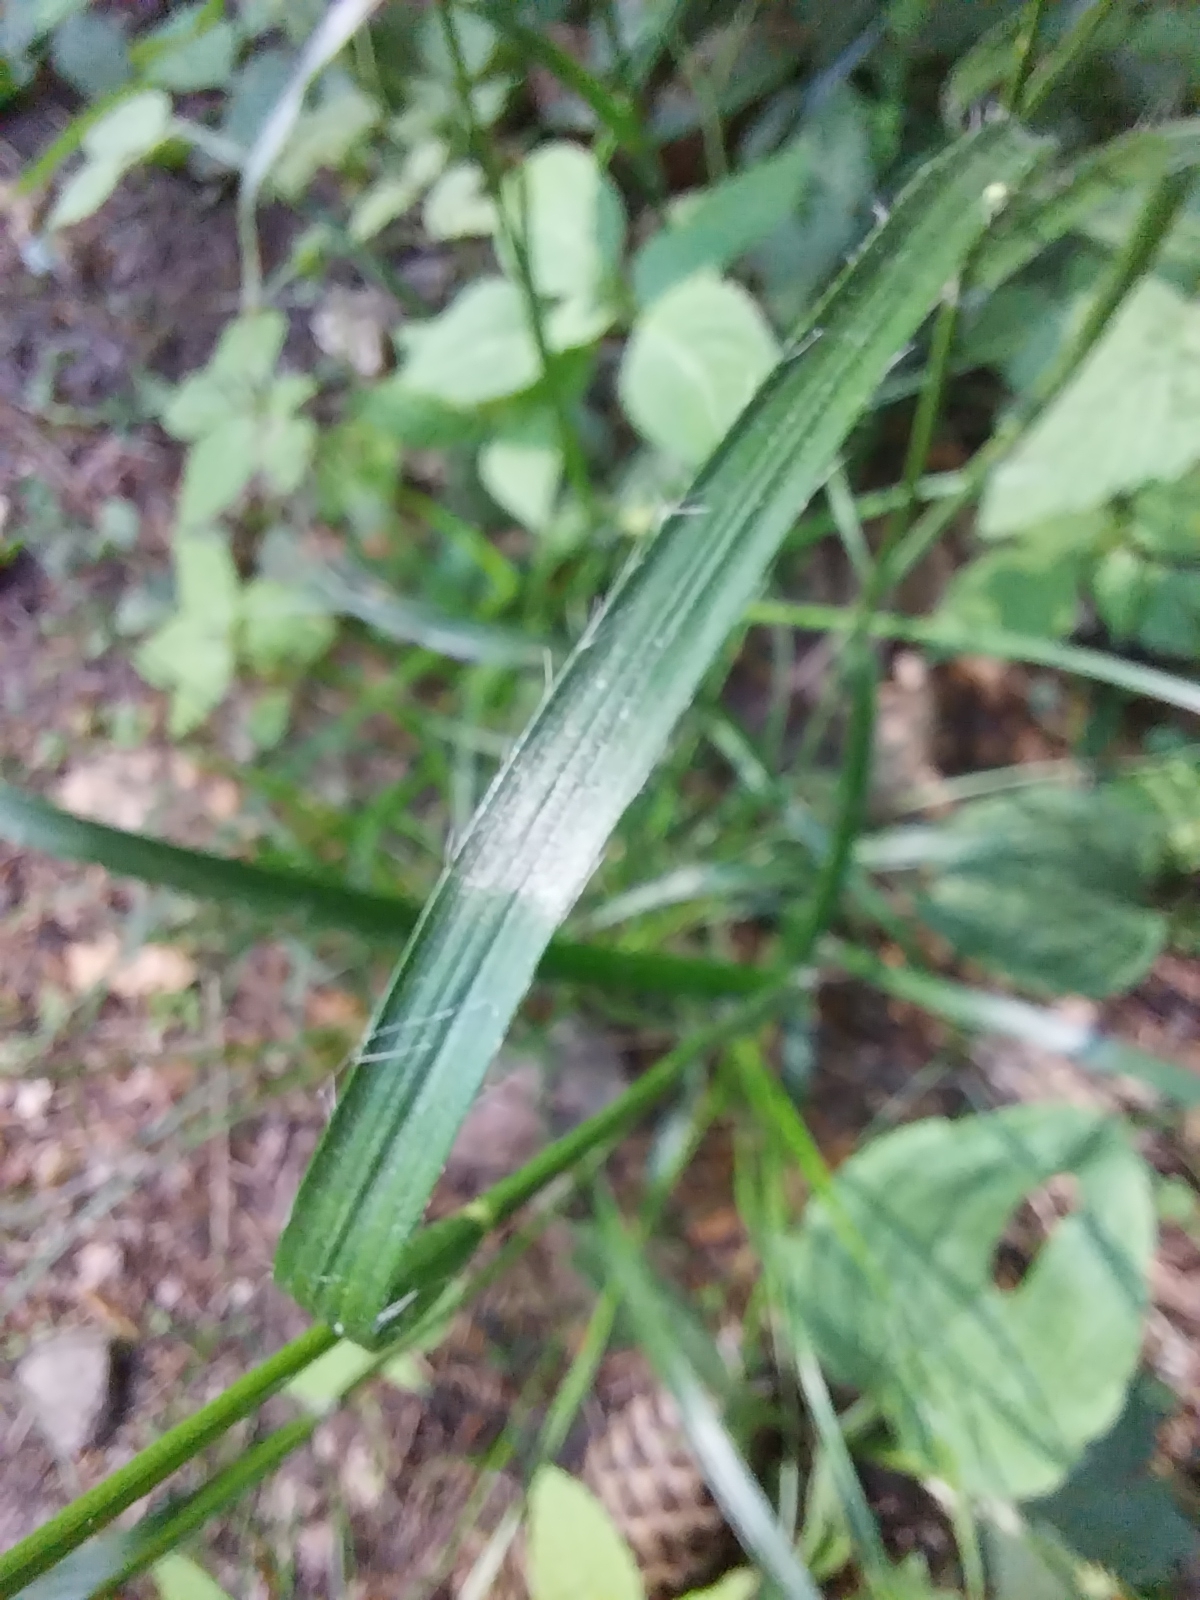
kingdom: Plantae
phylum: Tracheophyta
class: Liliopsida
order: Poales
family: Juncaceae
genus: Luzula
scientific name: Luzula luzuloides
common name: White wood-rush
